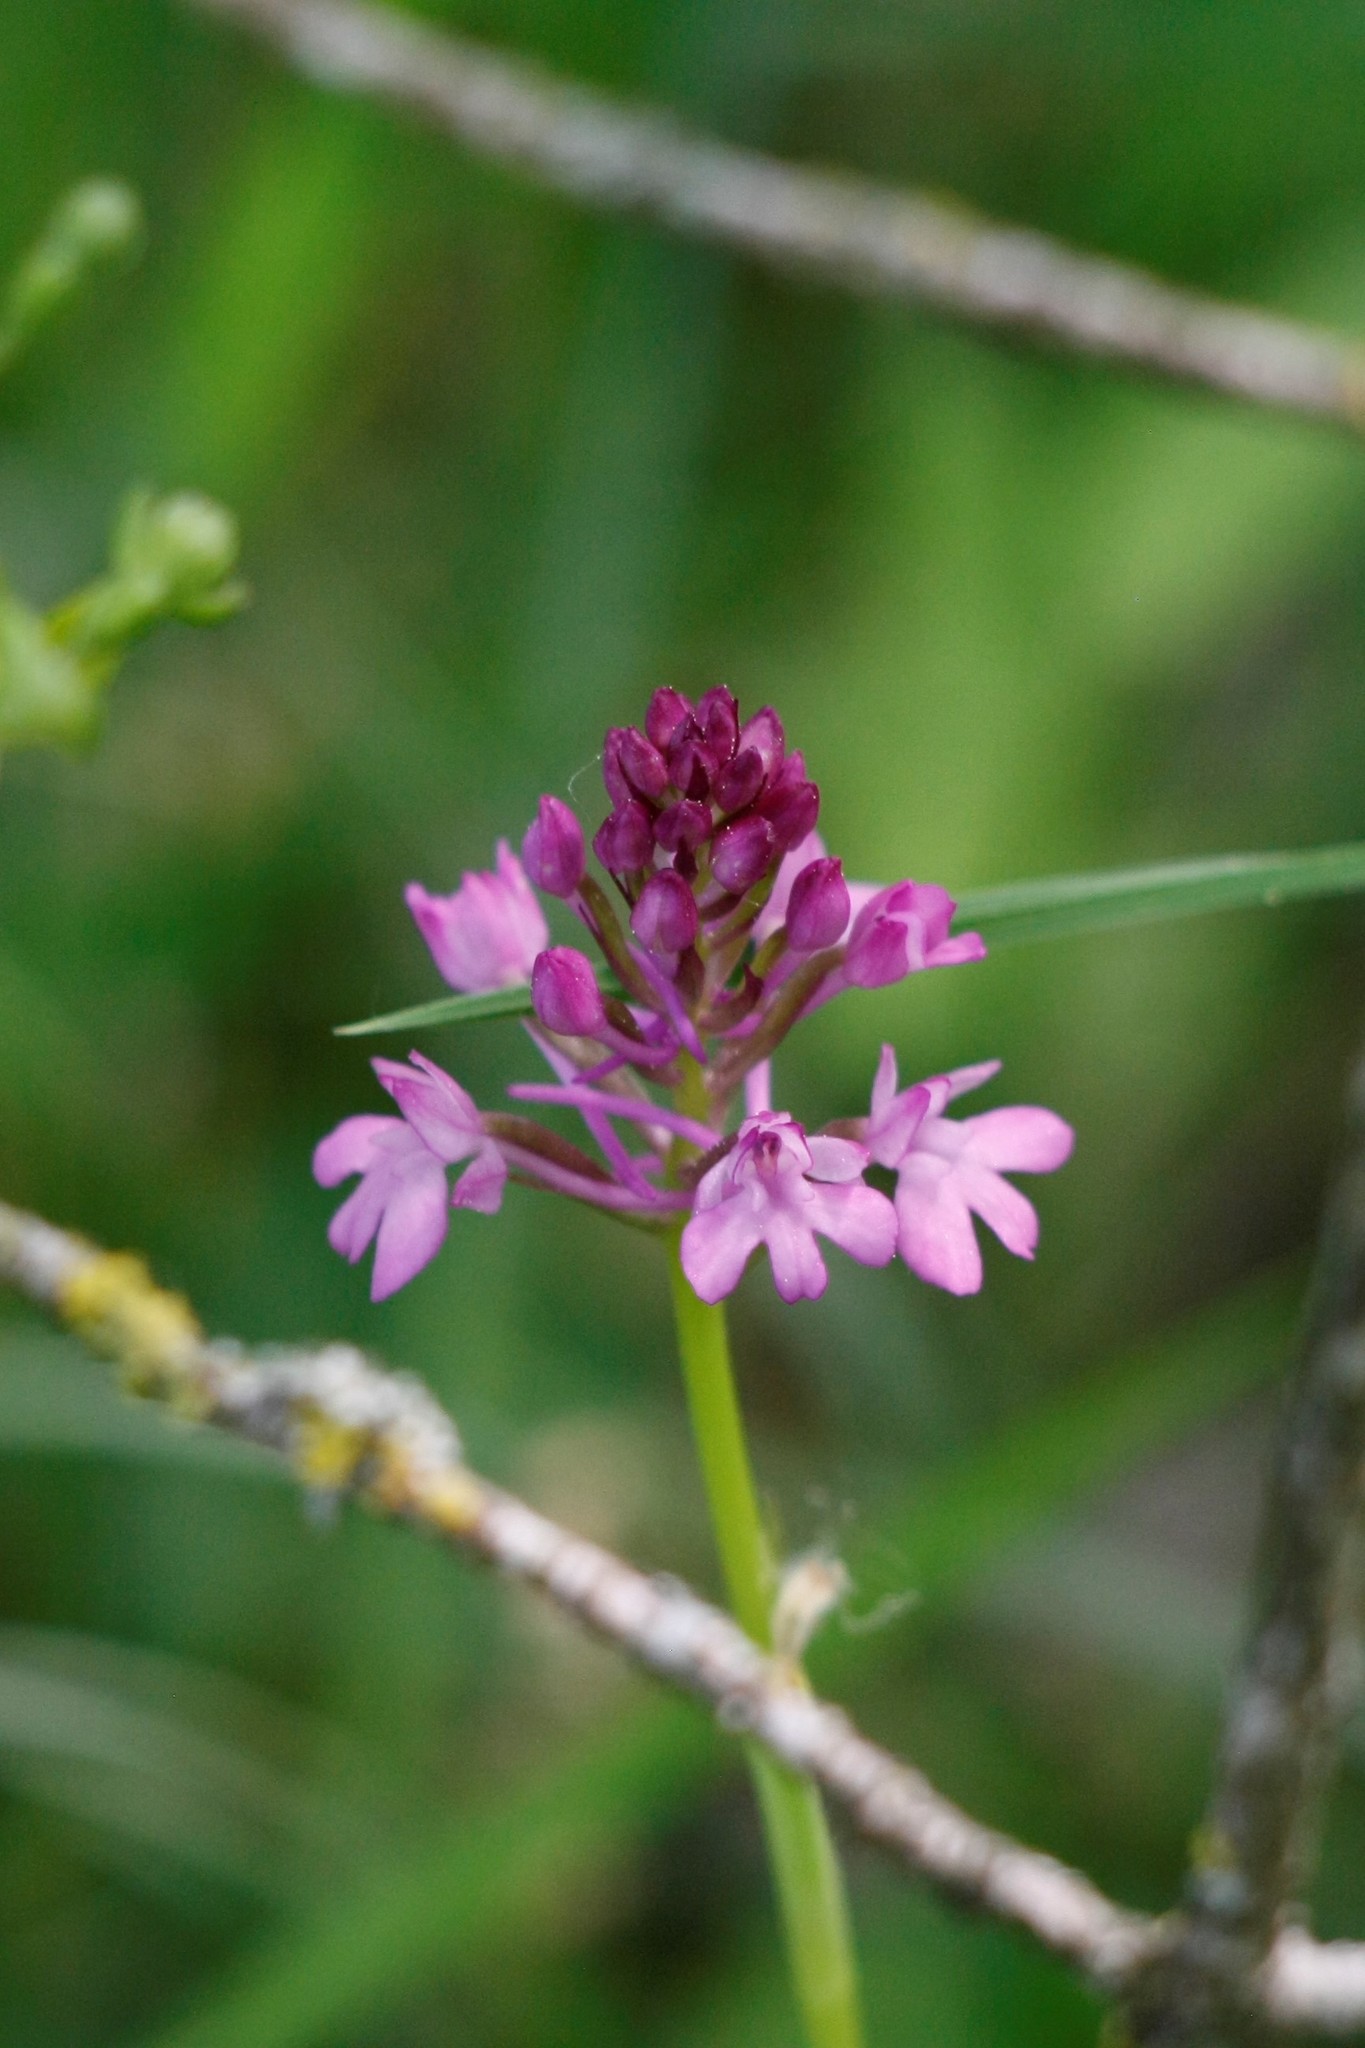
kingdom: Plantae
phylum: Tracheophyta
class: Liliopsida
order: Asparagales
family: Orchidaceae
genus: Anacamptis
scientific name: Anacamptis pyramidalis
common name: Pyramidal orchid
